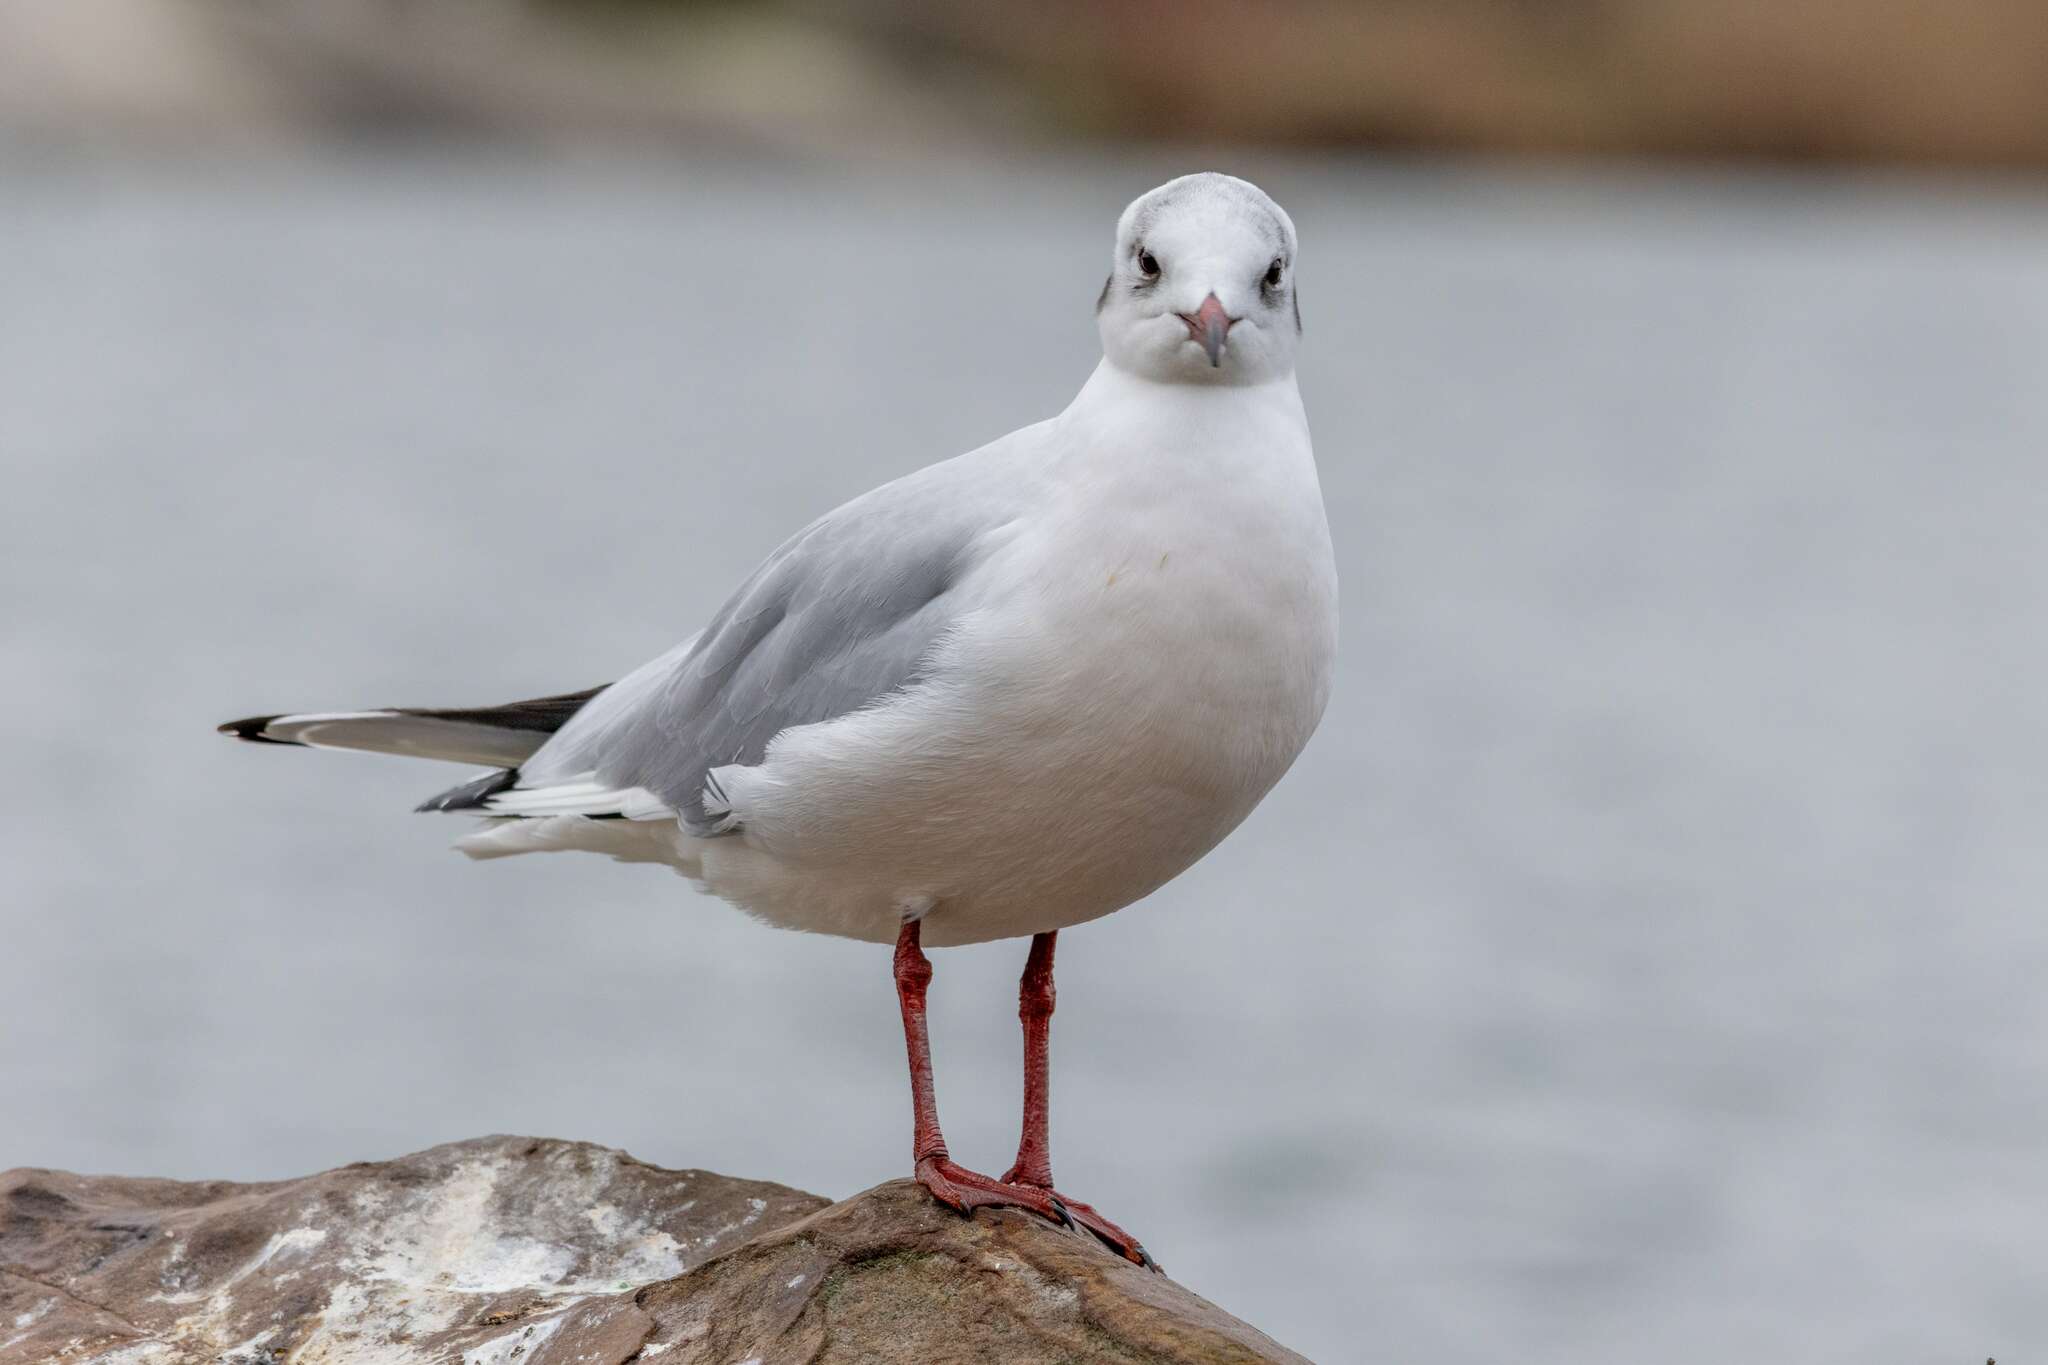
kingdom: Animalia
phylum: Chordata
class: Aves
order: Charadriiformes
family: Laridae
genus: Chroicocephalus
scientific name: Chroicocephalus ridibundus
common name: Black-headed gull
